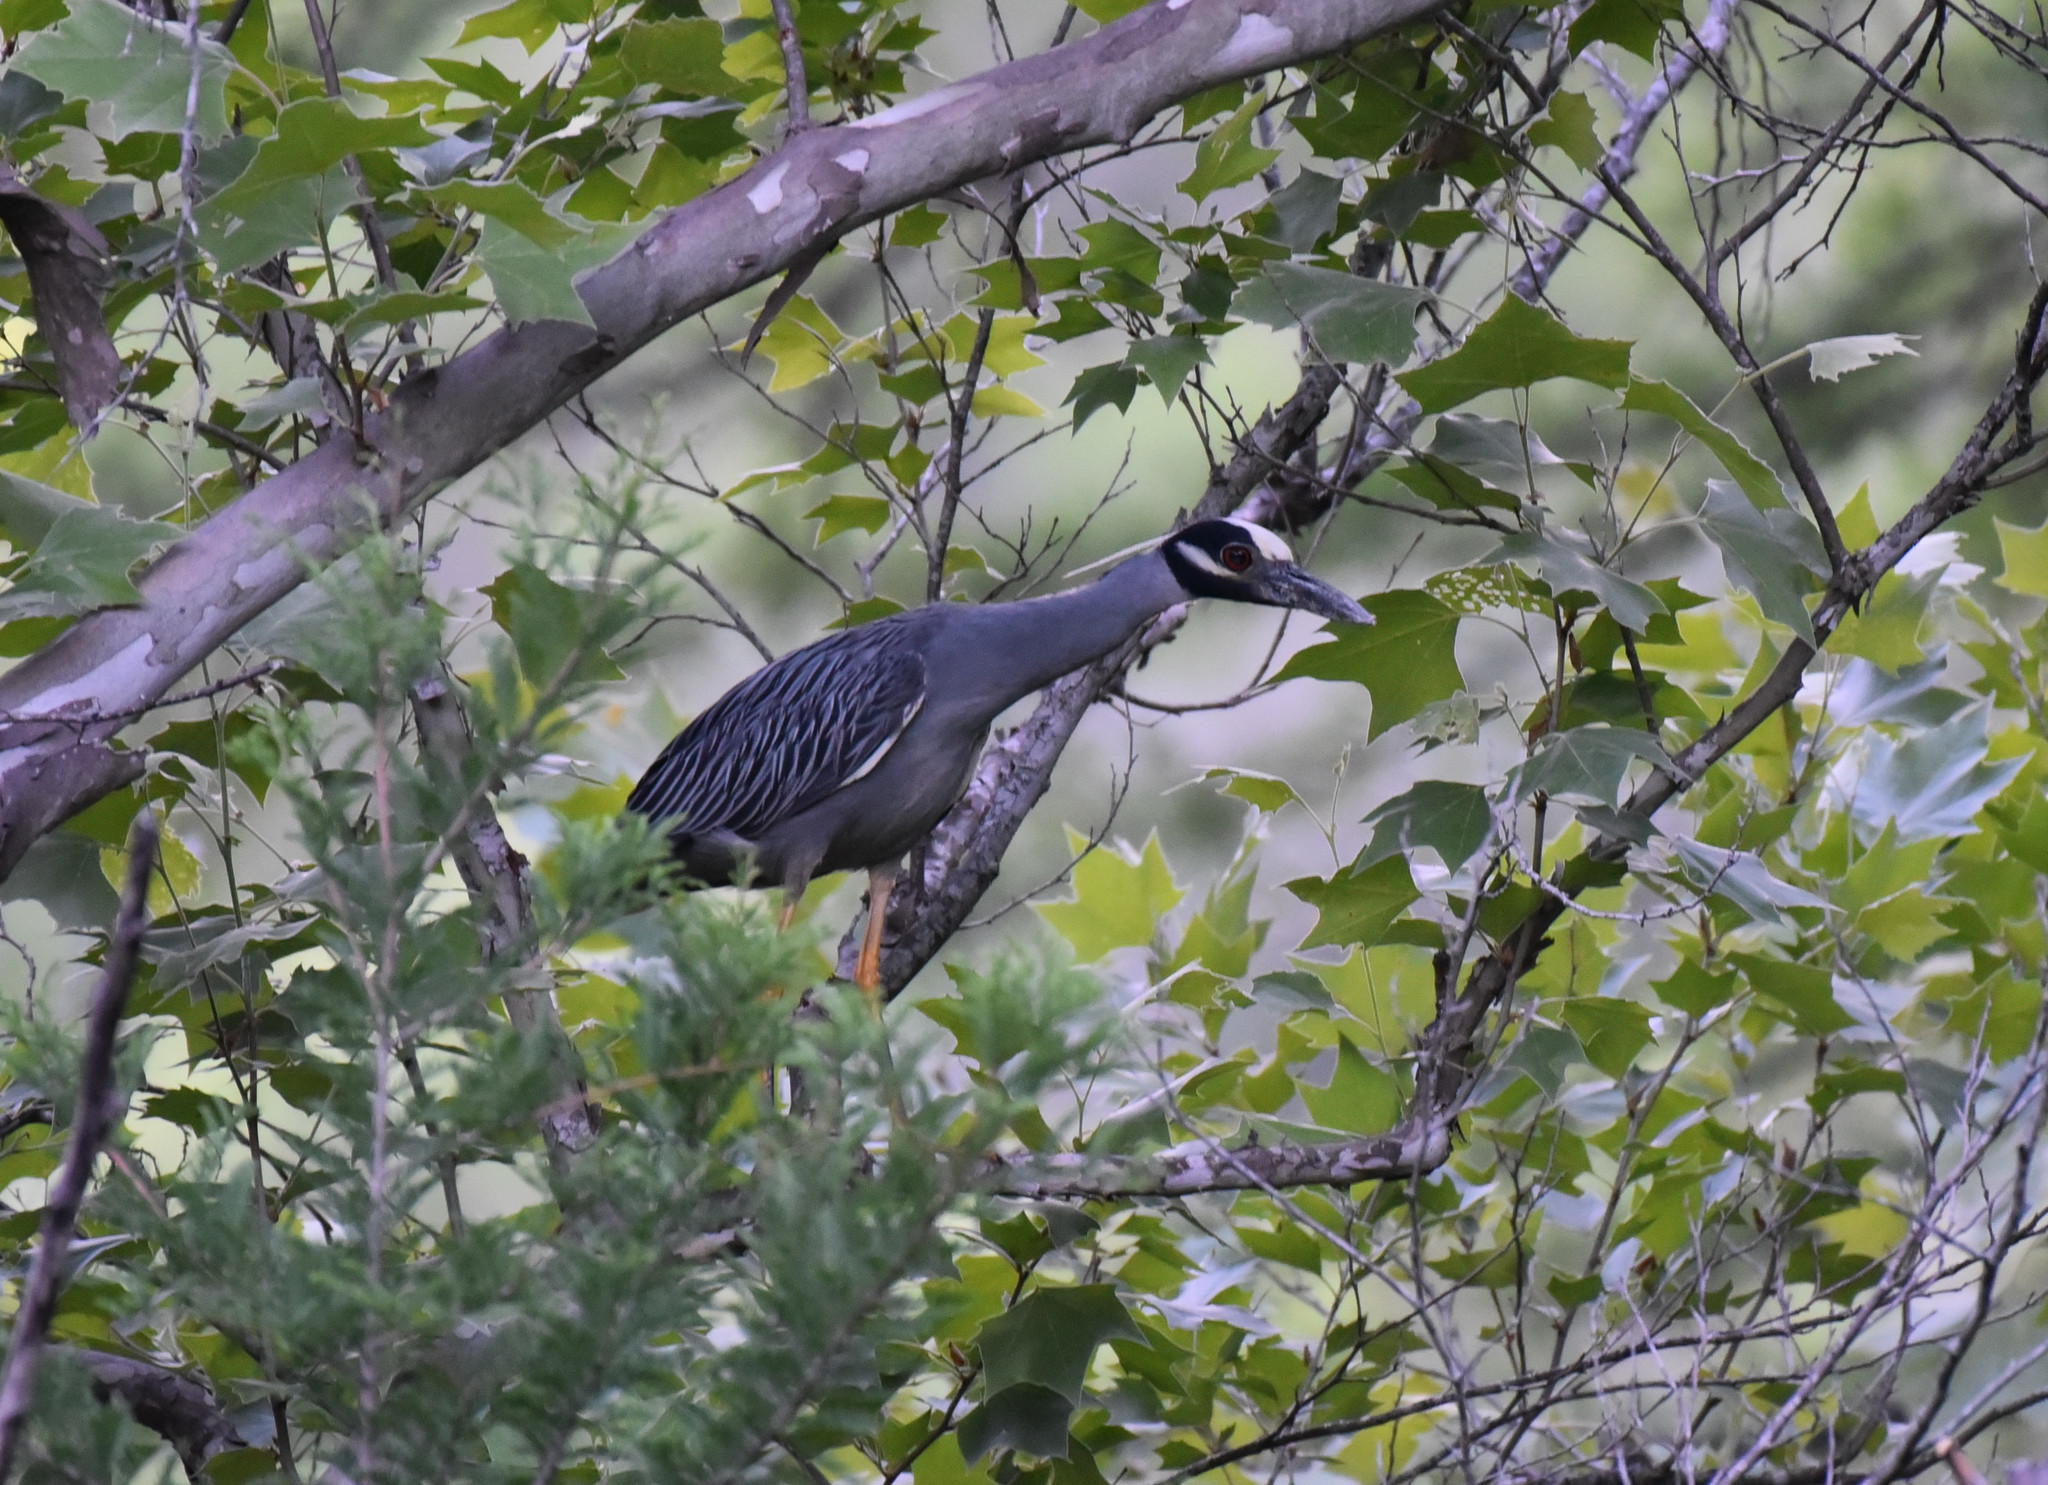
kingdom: Animalia
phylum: Chordata
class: Aves
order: Pelecaniformes
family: Ardeidae
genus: Nyctanassa
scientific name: Nyctanassa violacea
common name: Yellow-crowned night heron
